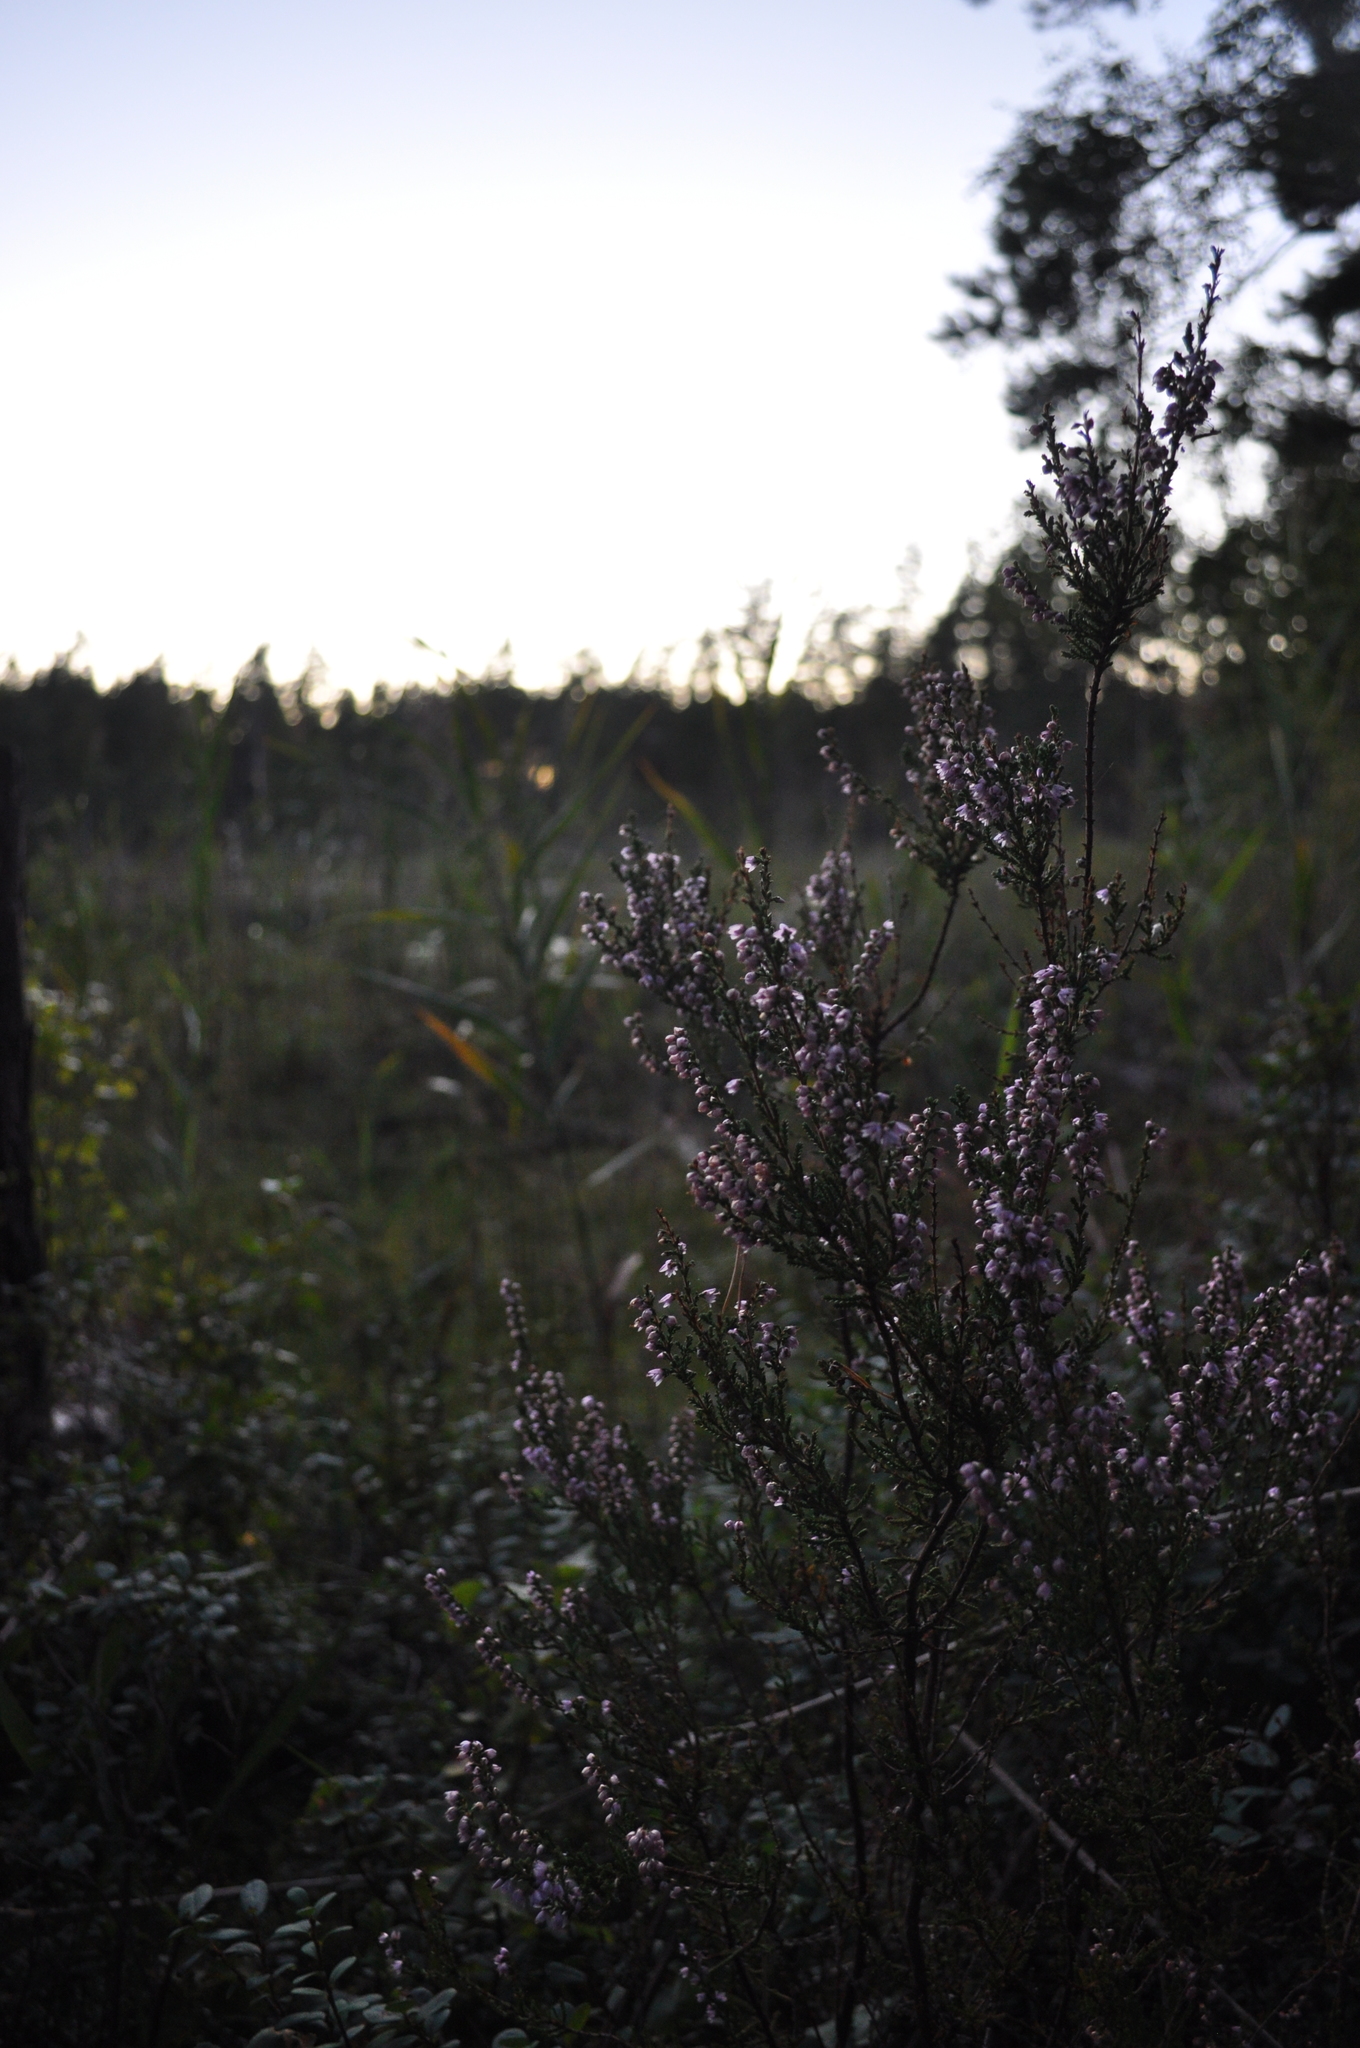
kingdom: Plantae
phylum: Tracheophyta
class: Magnoliopsida
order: Ericales
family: Ericaceae
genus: Calluna
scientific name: Calluna vulgaris
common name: Heather
